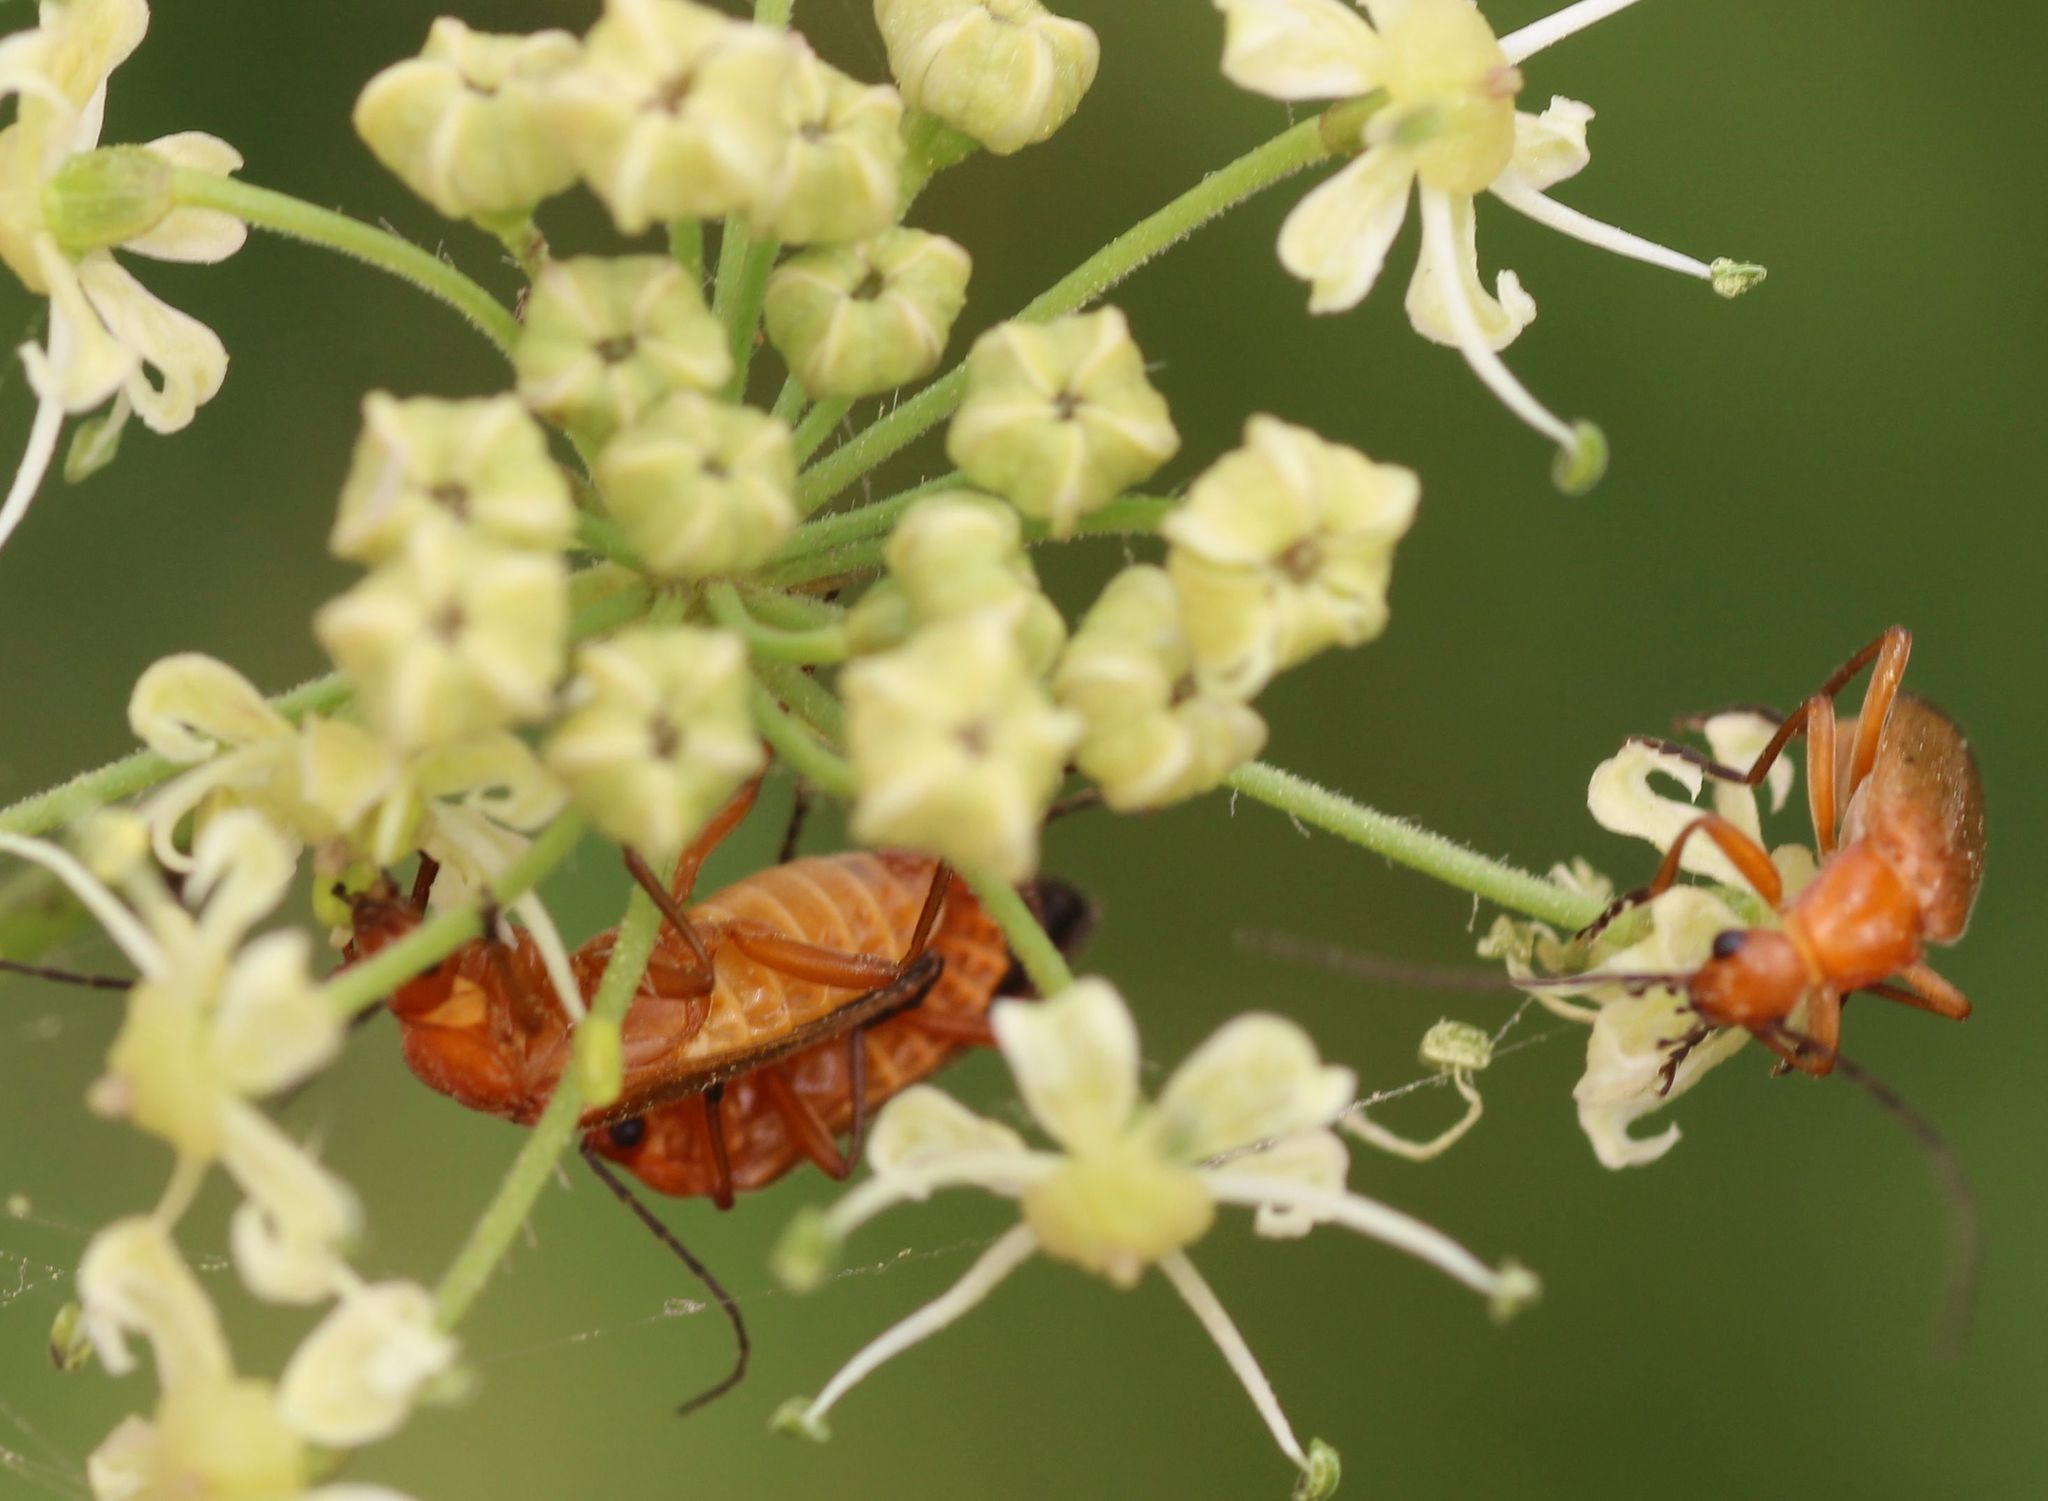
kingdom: Animalia
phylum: Arthropoda
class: Insecta
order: Coleoptera
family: Cantharidae
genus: Rhagonycha
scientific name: Rhagonycha fulva
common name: Common red soldier beetle
